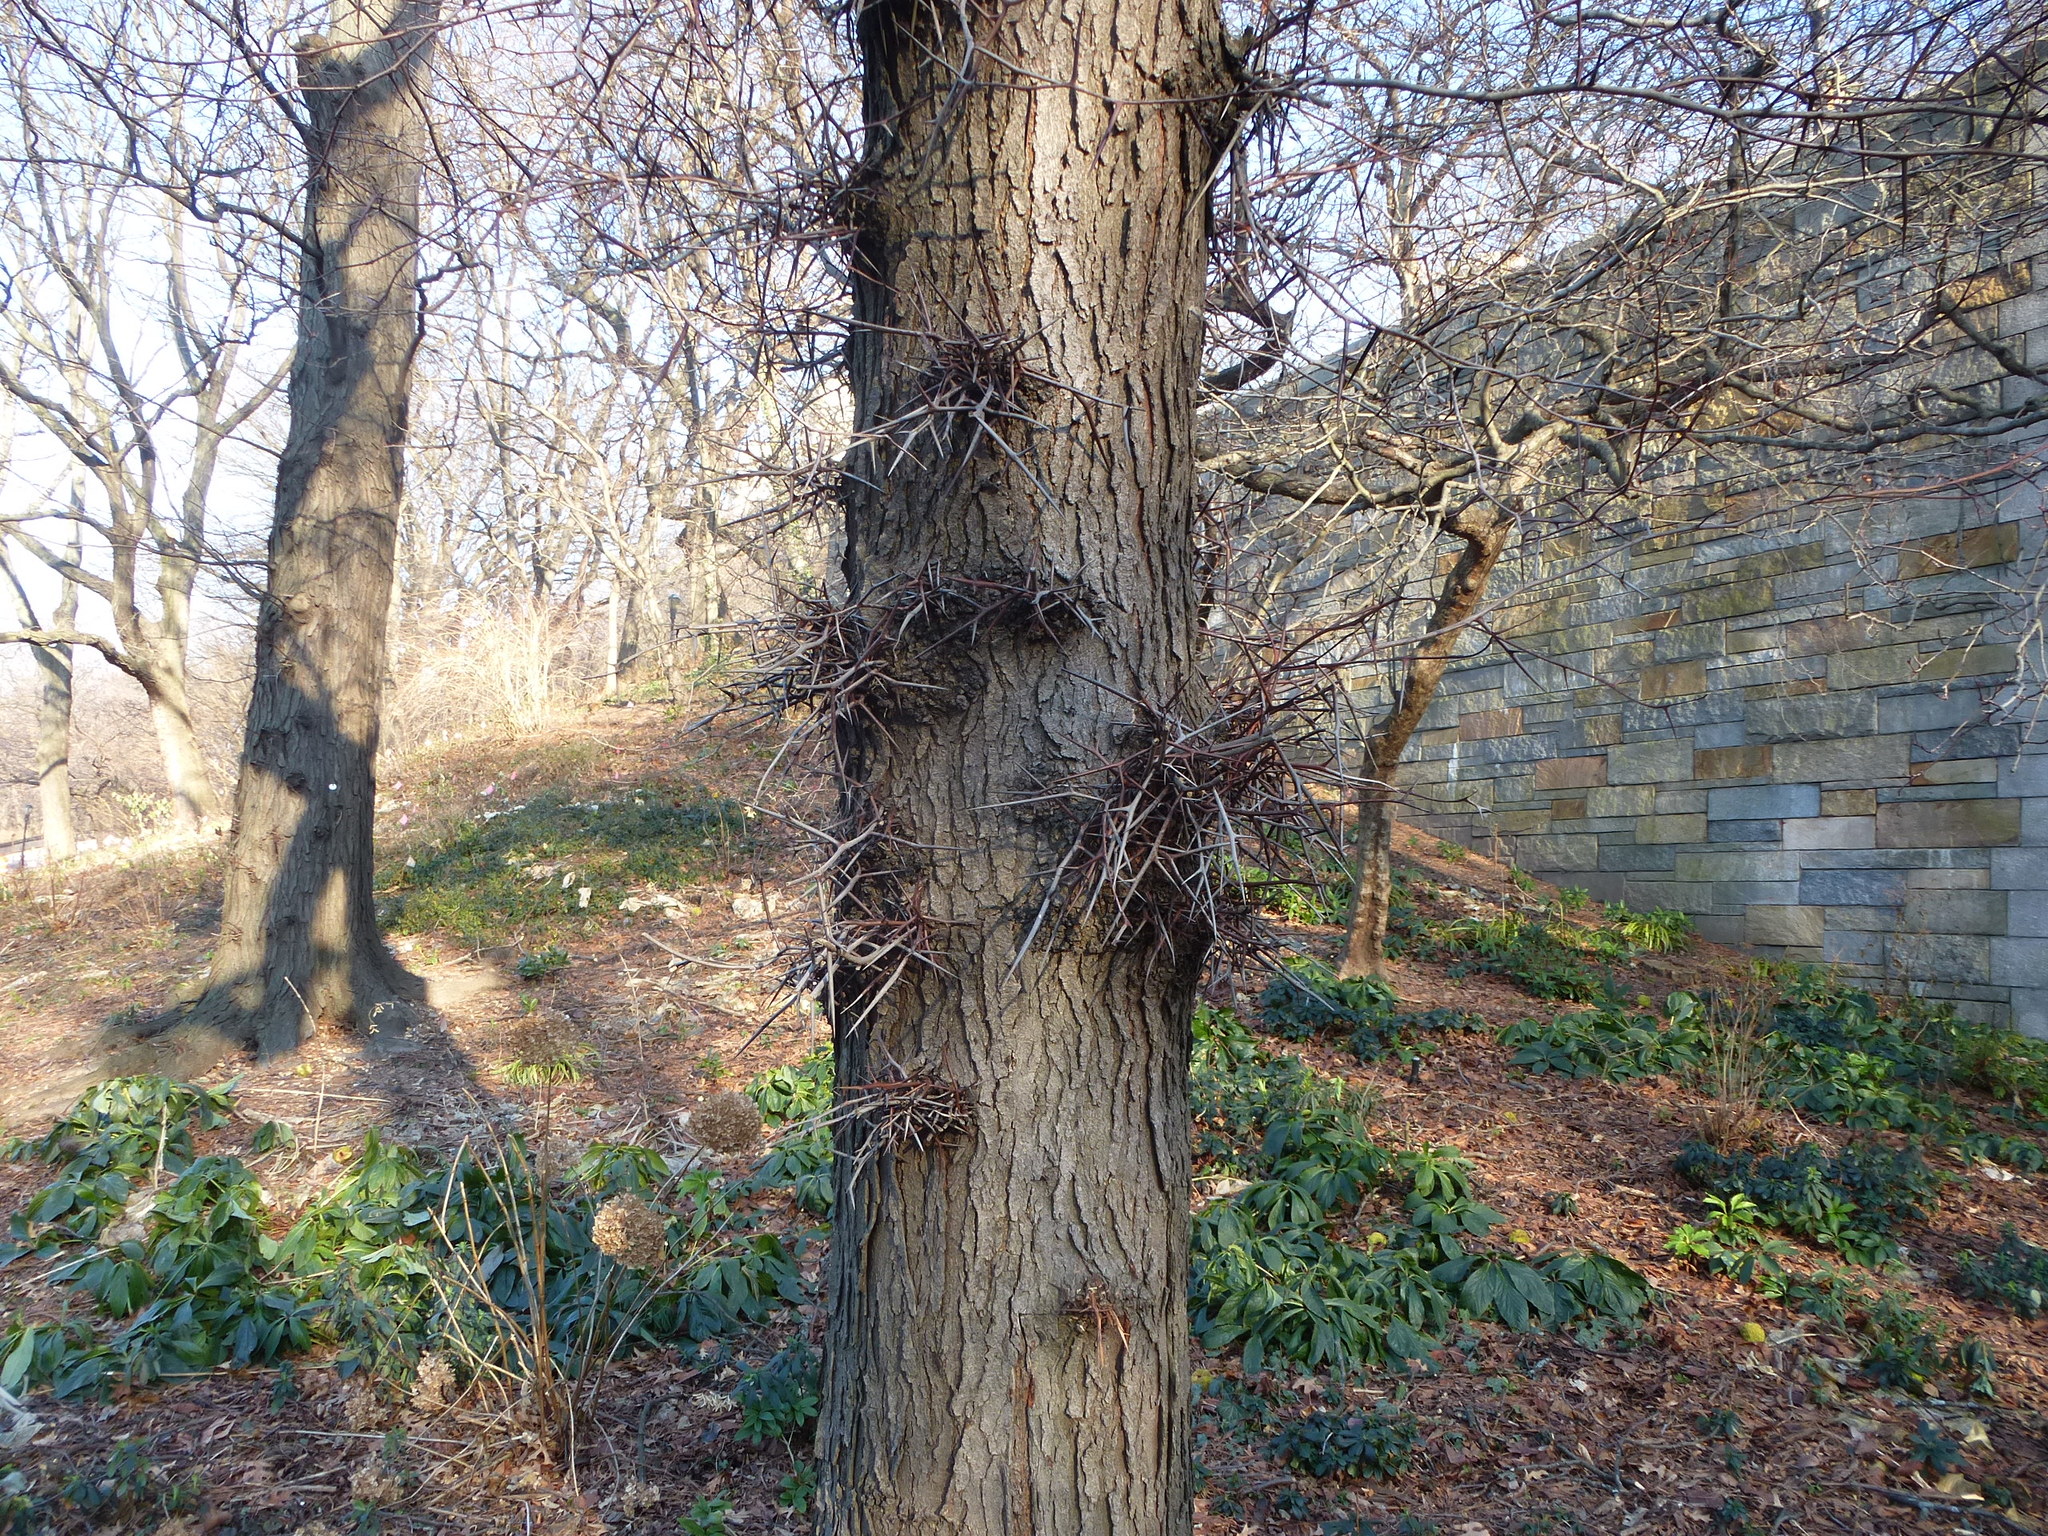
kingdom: Plantae
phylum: Tracheophyta
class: Magnoliopsida
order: Fabales
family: Fabaceae
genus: Gleditsia
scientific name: Gleditsia triacanthos
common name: Common honeylocust
